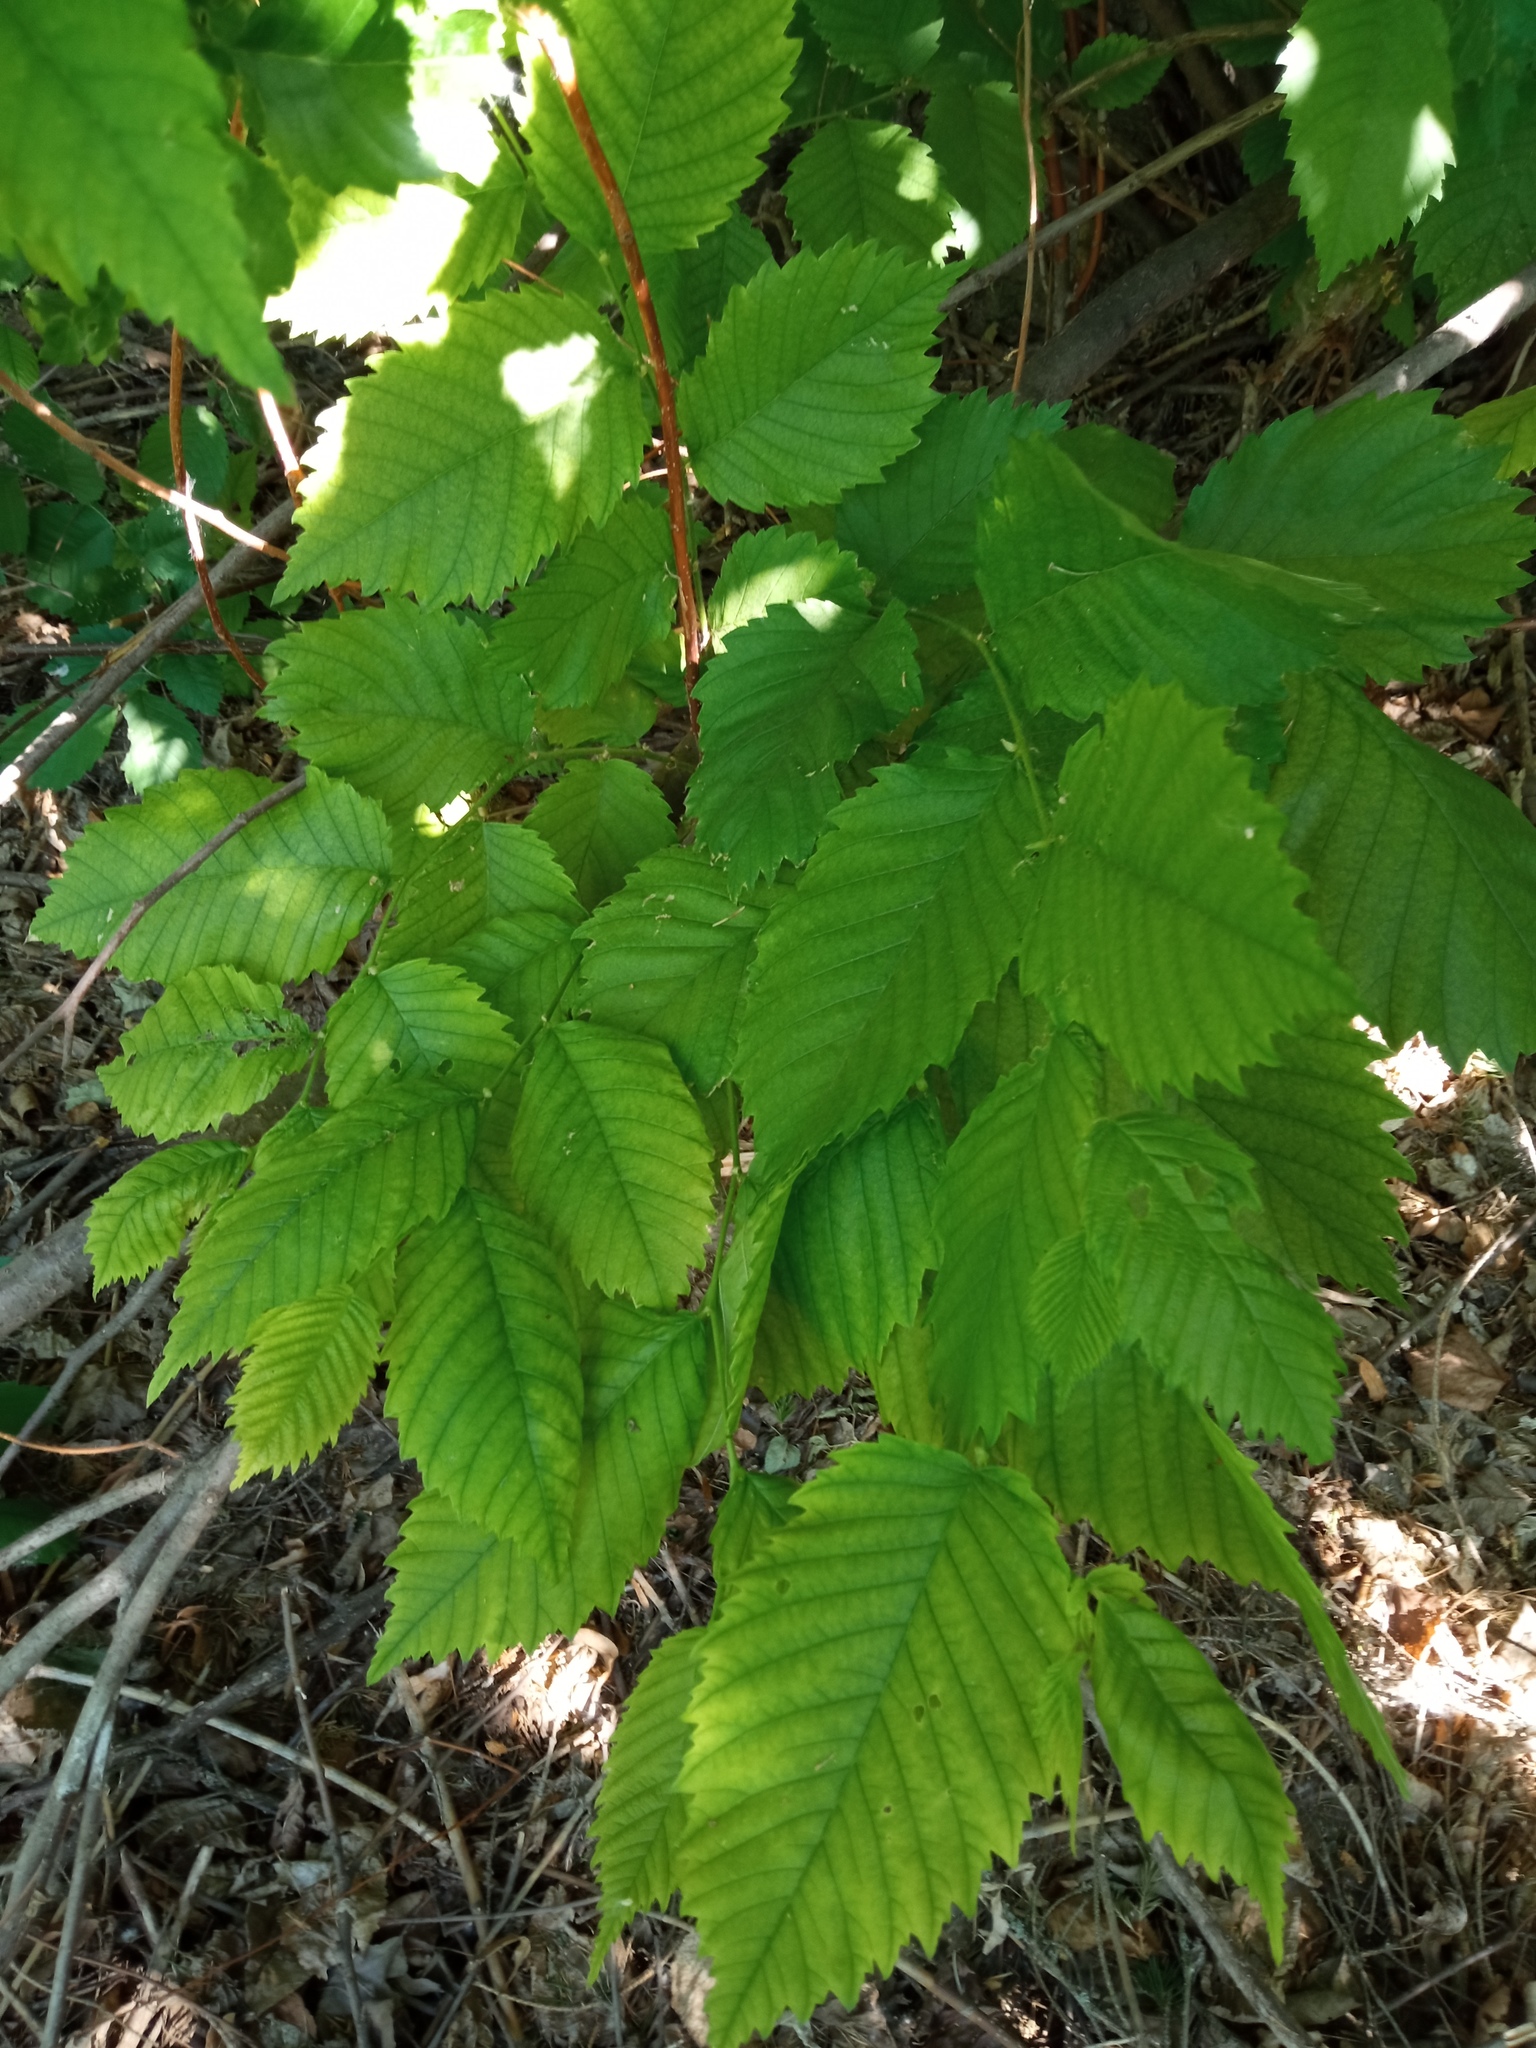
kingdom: Plantae
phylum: Tracheophyta
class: Magnoliopsida
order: Rosales
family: Ulmaceae
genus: Ulmus
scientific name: Ulmus laevis
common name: European white-elm
